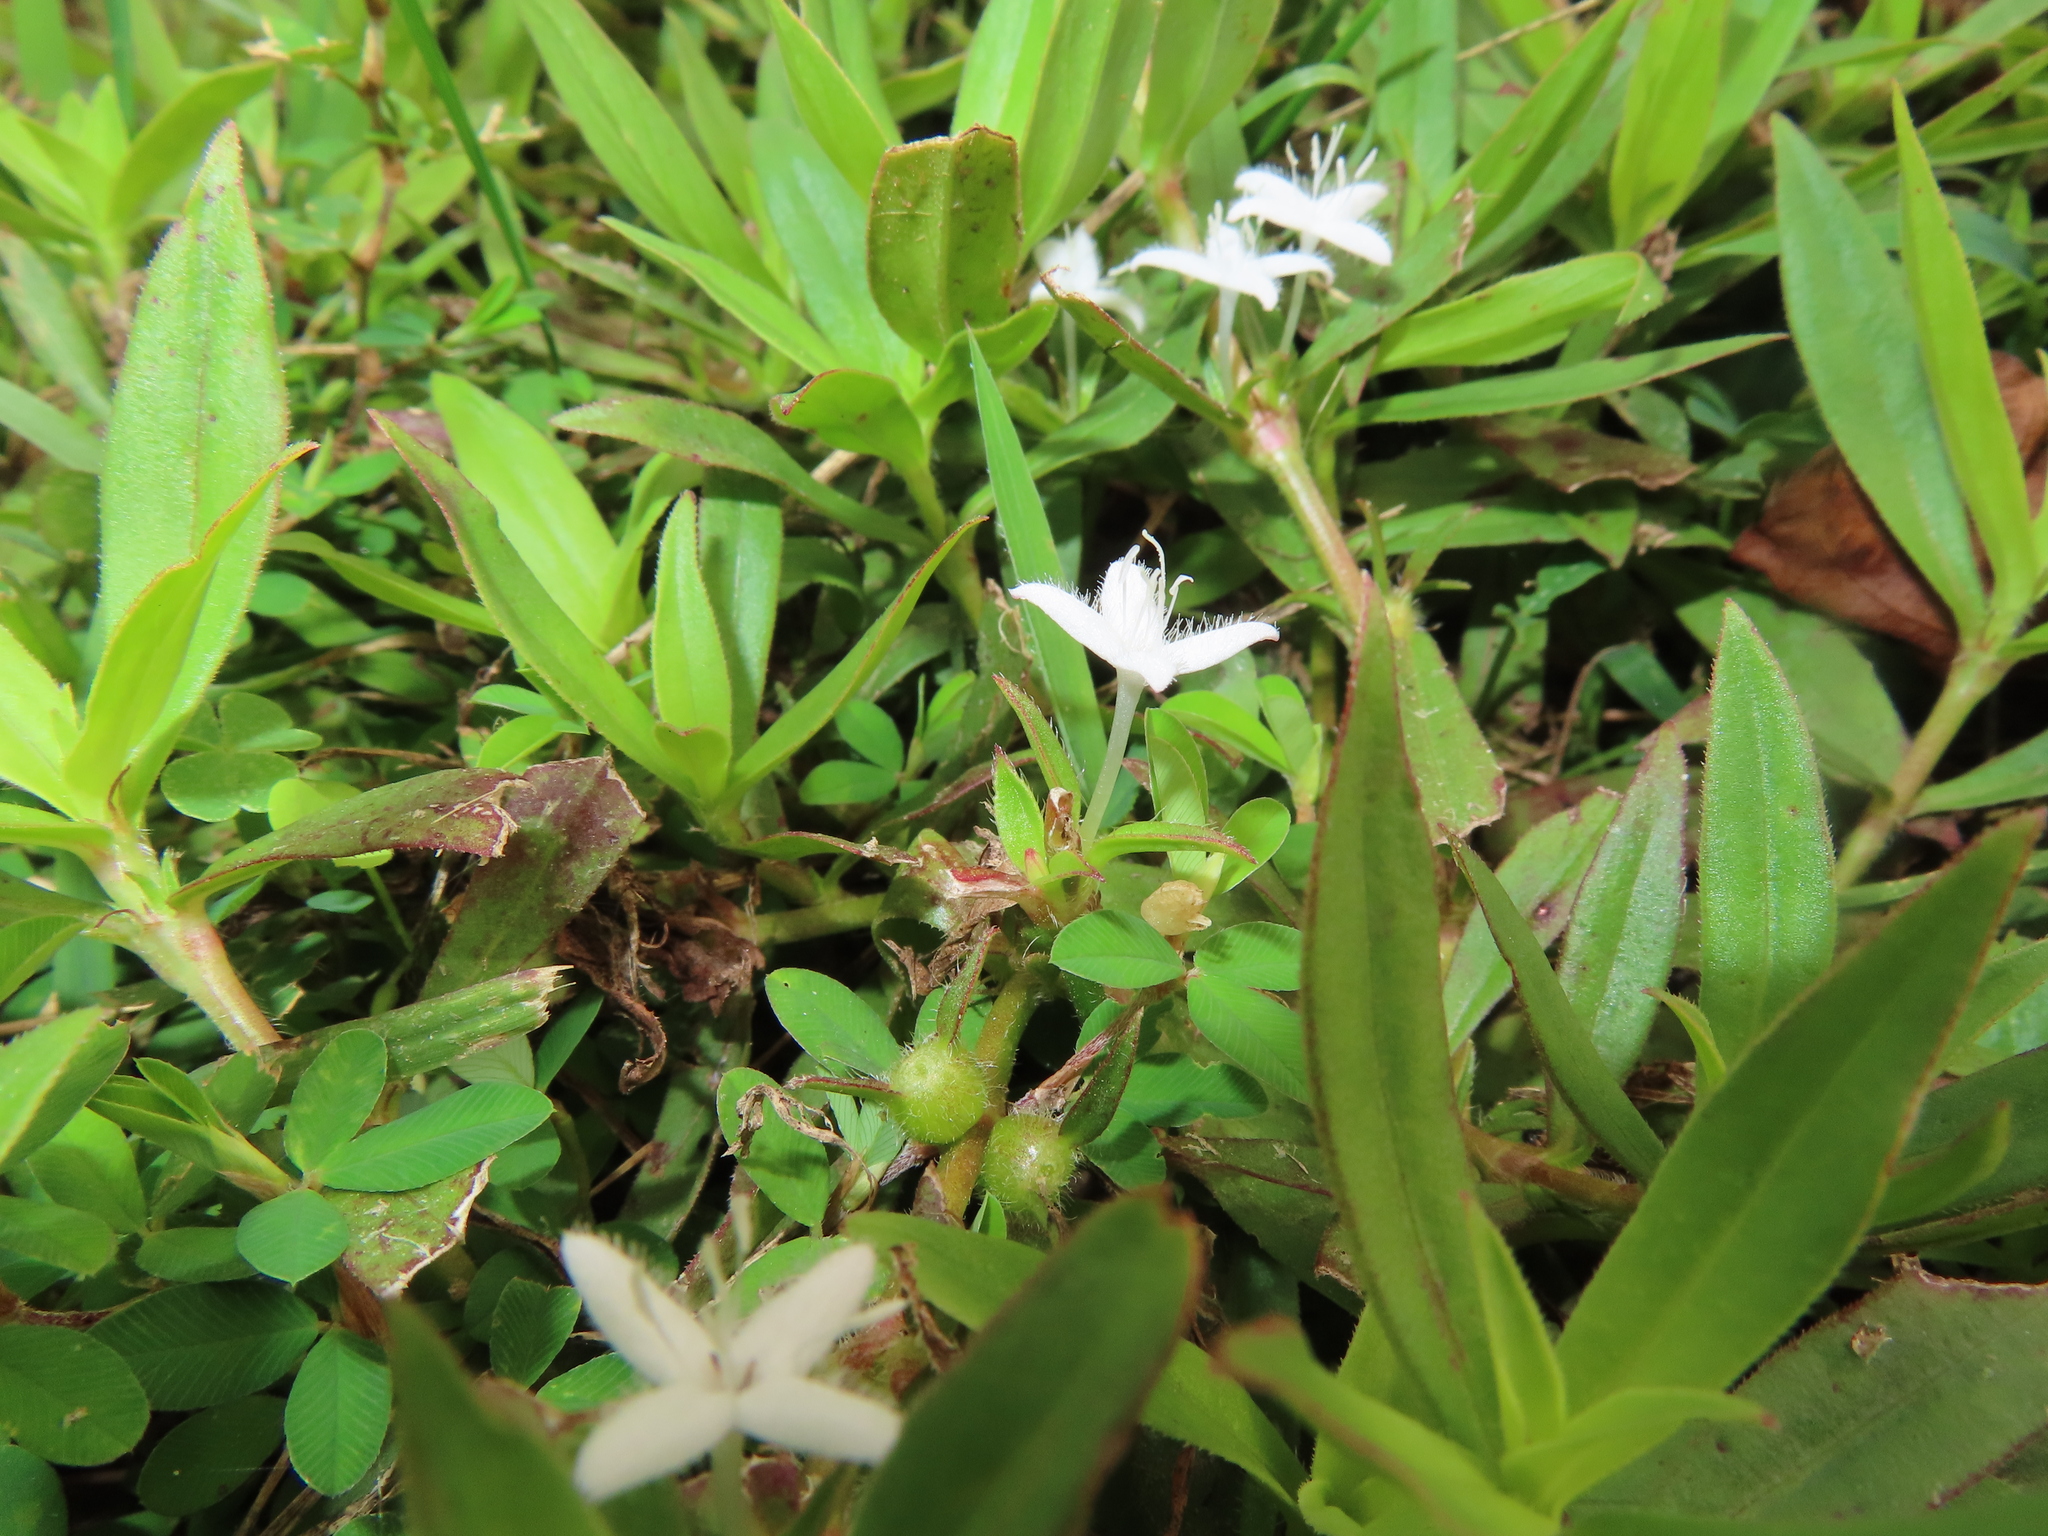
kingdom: Plantae
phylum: Tracheophyta
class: Magnoliopsida
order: Gentianales
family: Rubiaceae
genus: Diodia
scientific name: Diodia virginiana
